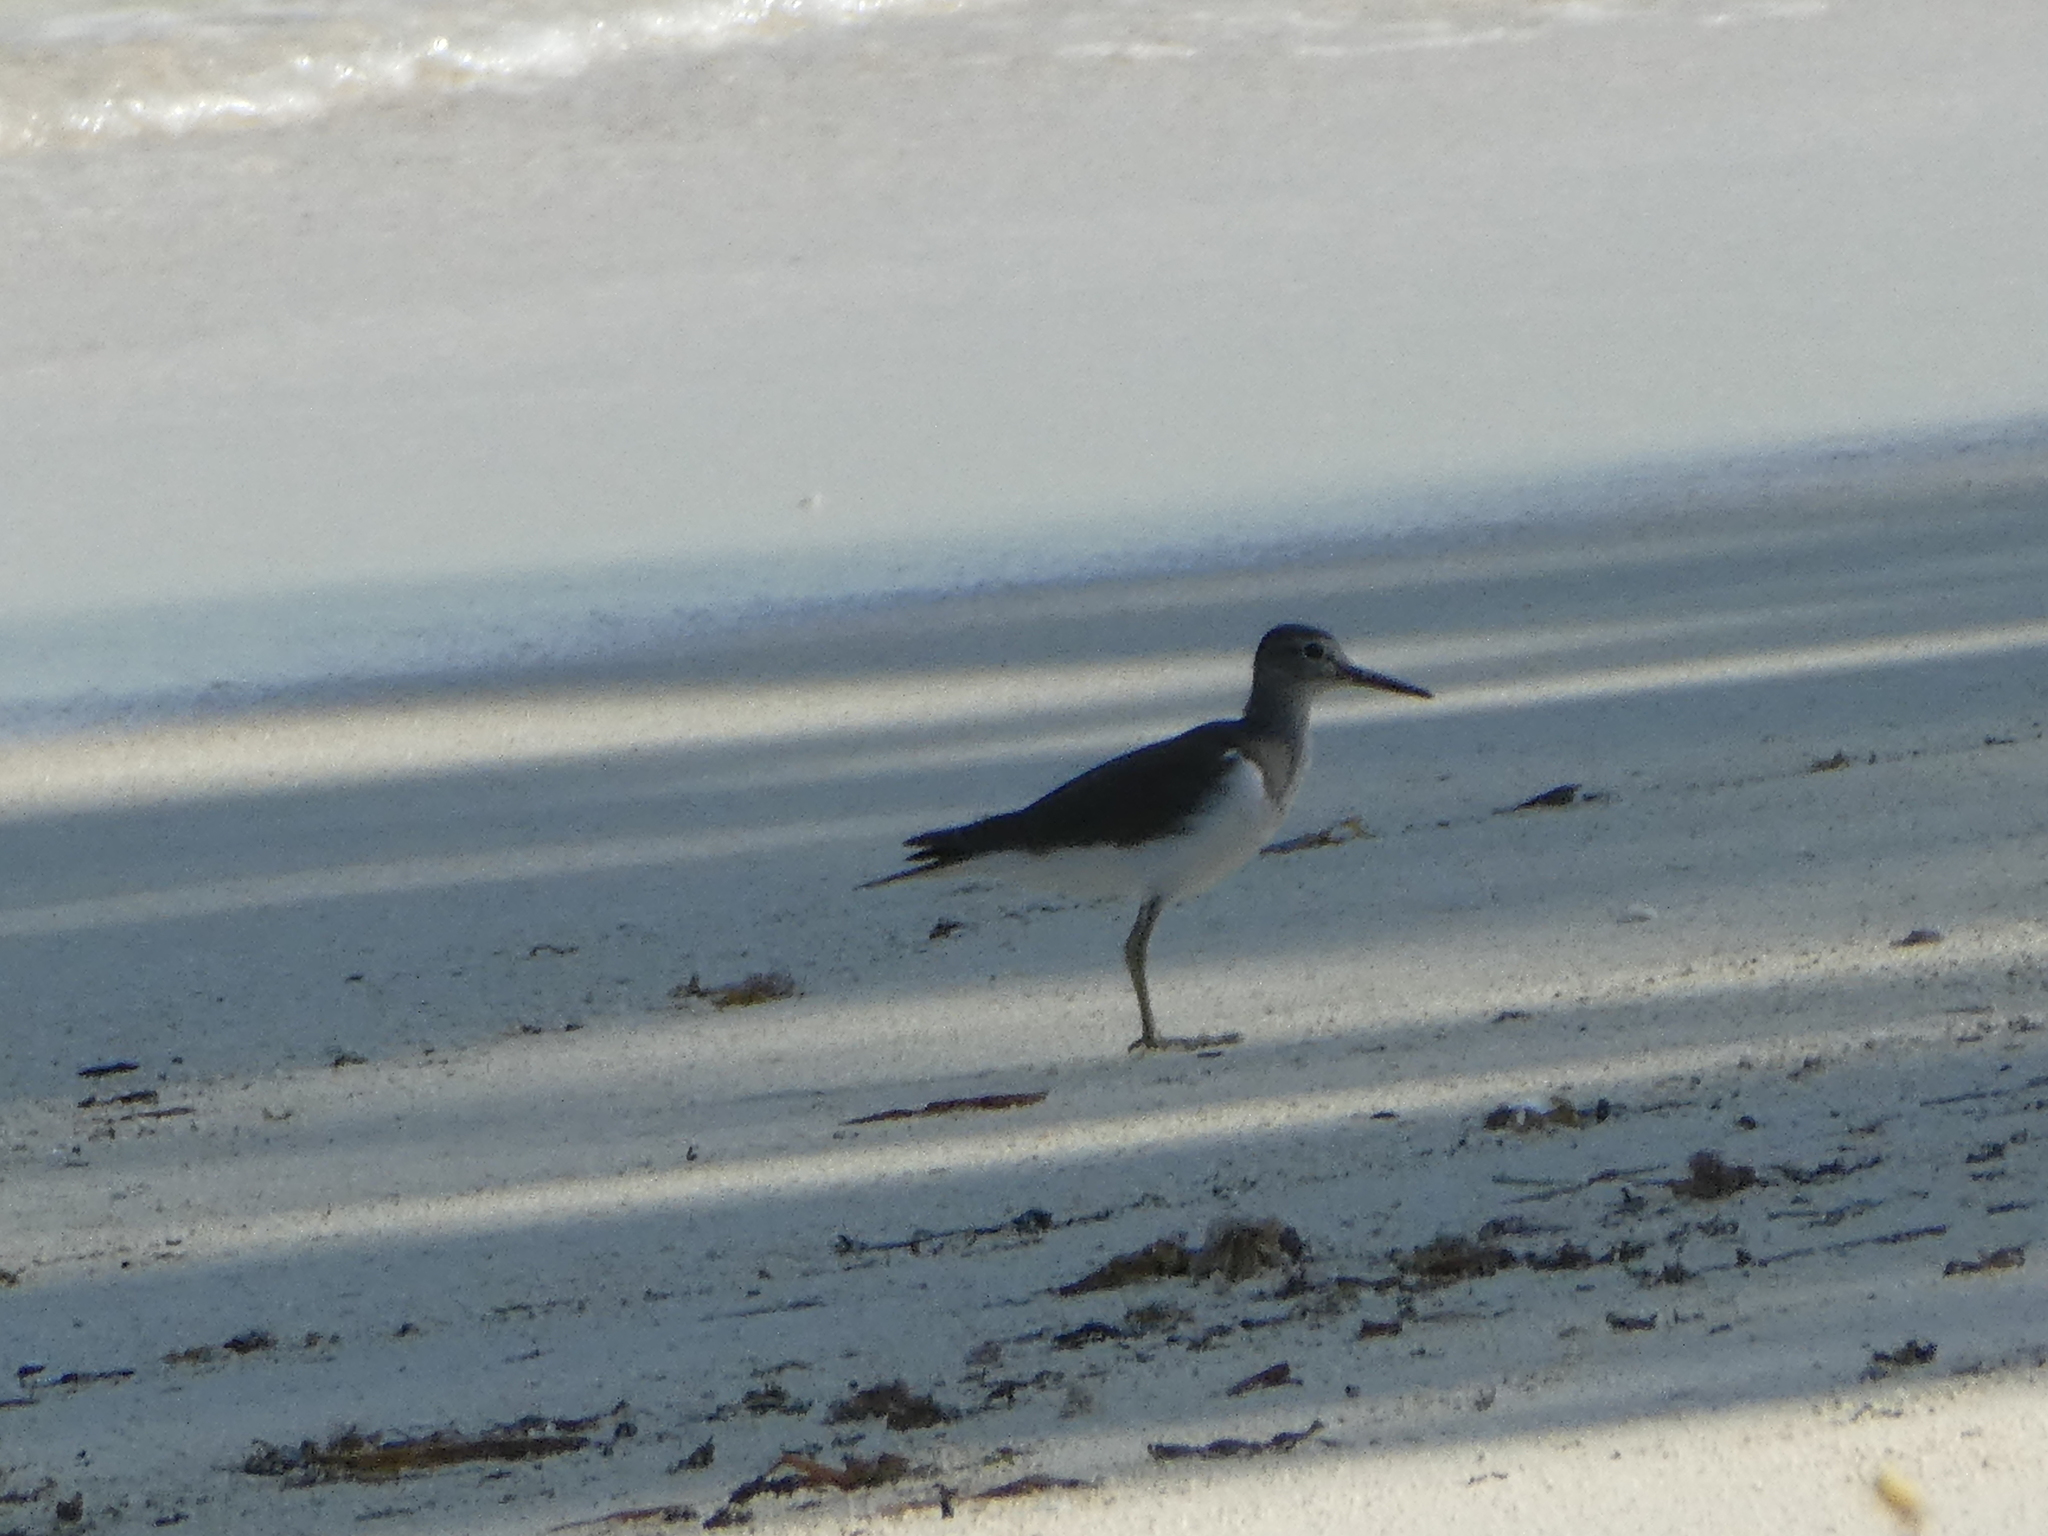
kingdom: Animalia
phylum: Chordata
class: Aves
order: Charadriiformes
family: Scolopacidae
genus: Actitis
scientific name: Actitis hypoleucos
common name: Common sandpiper
